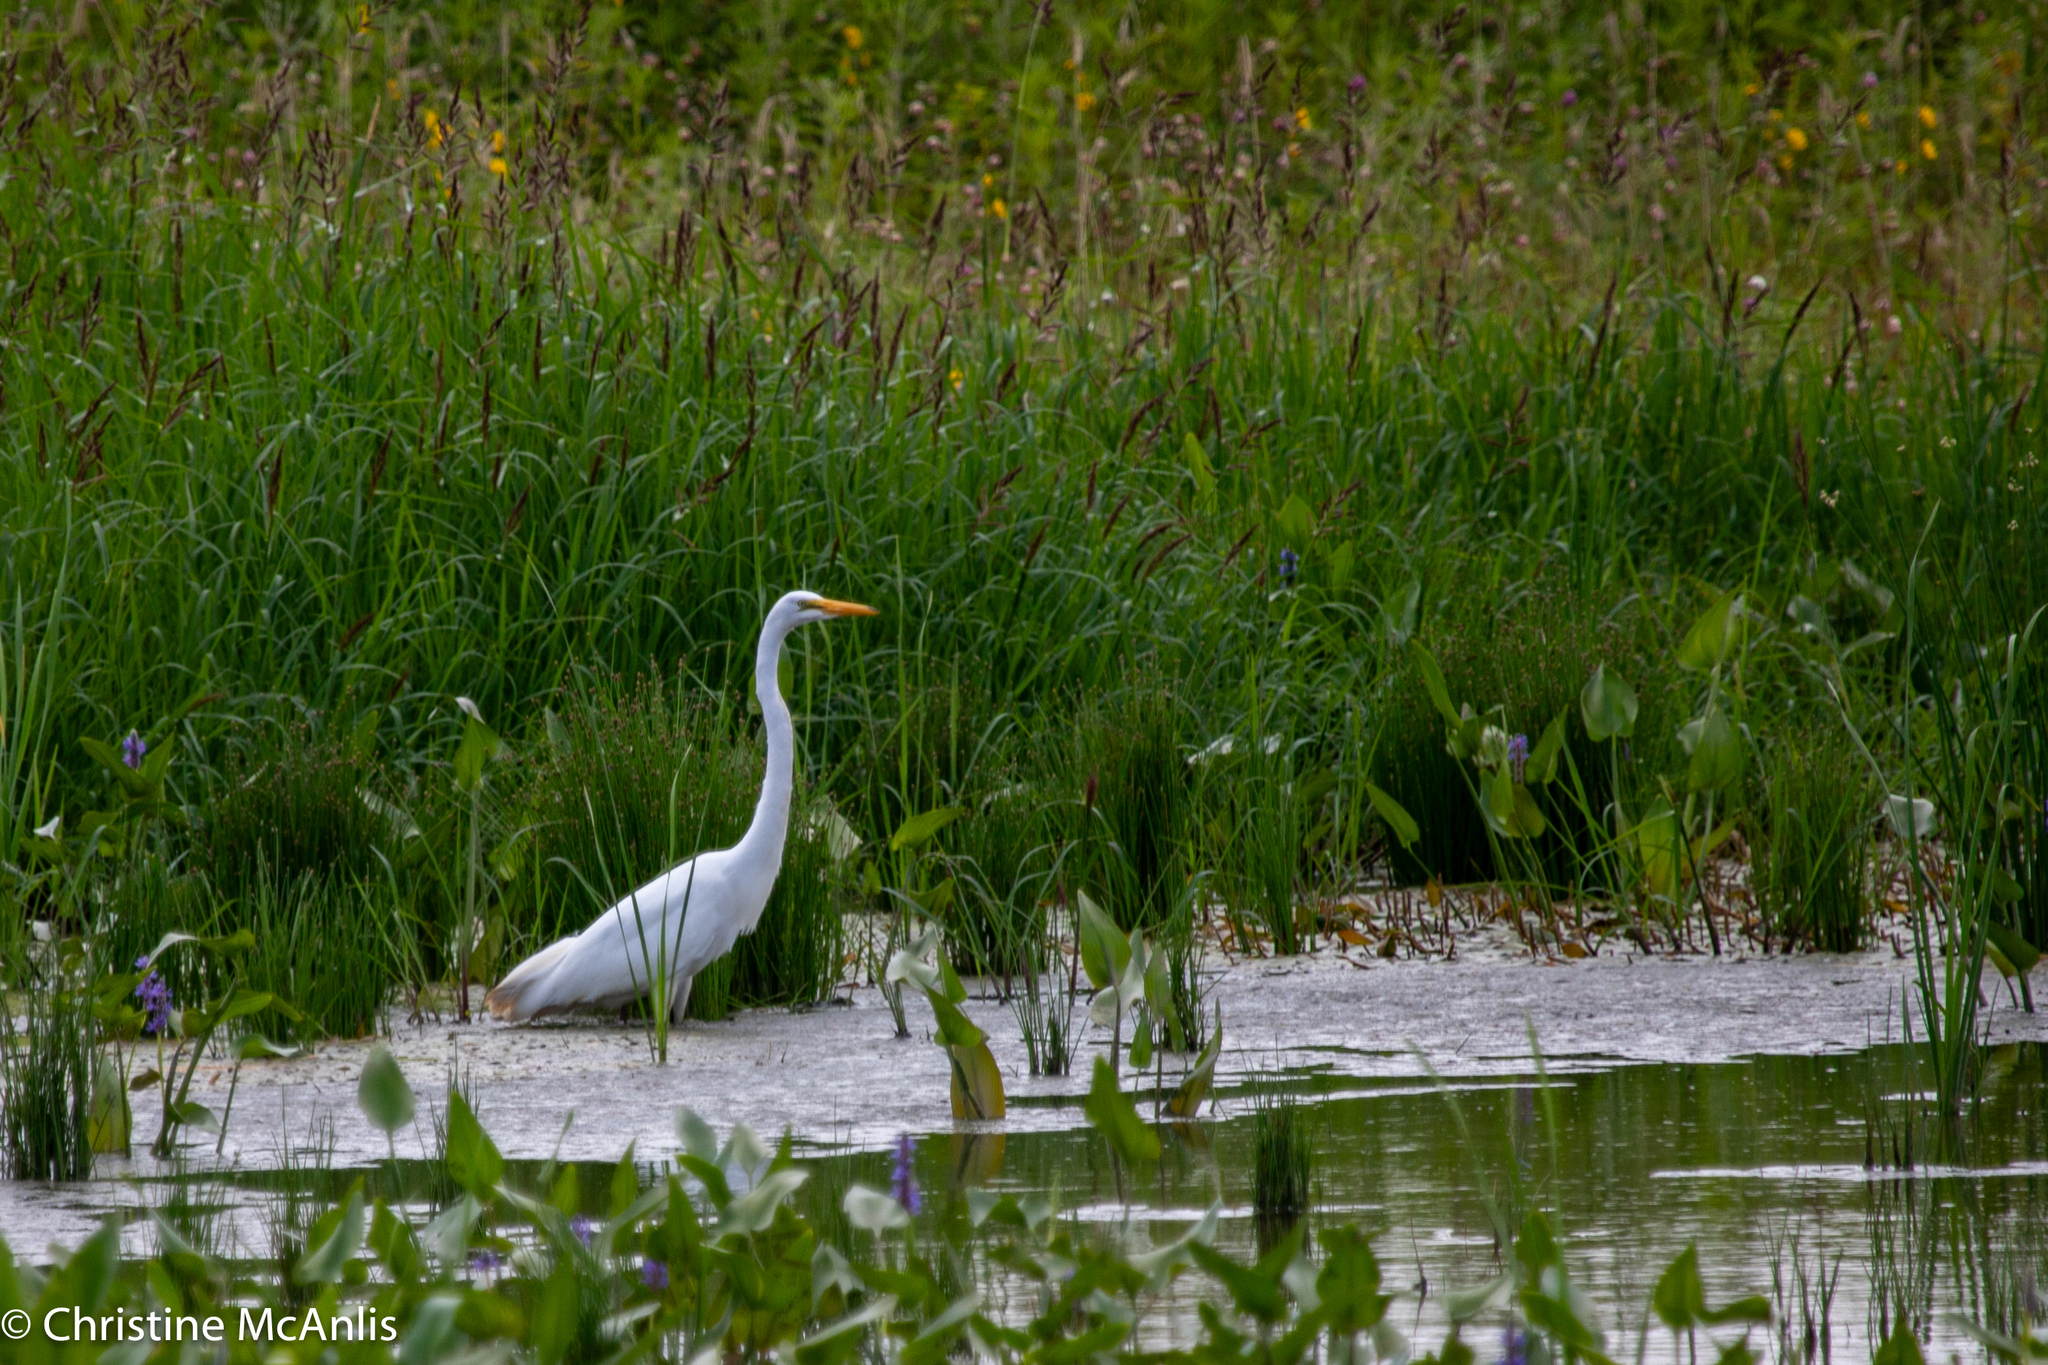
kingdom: Animalia
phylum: Chordata
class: Aves
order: Pelecaniformes
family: Ardeidae
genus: Ardea
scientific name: Ardea alba
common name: Great egret
